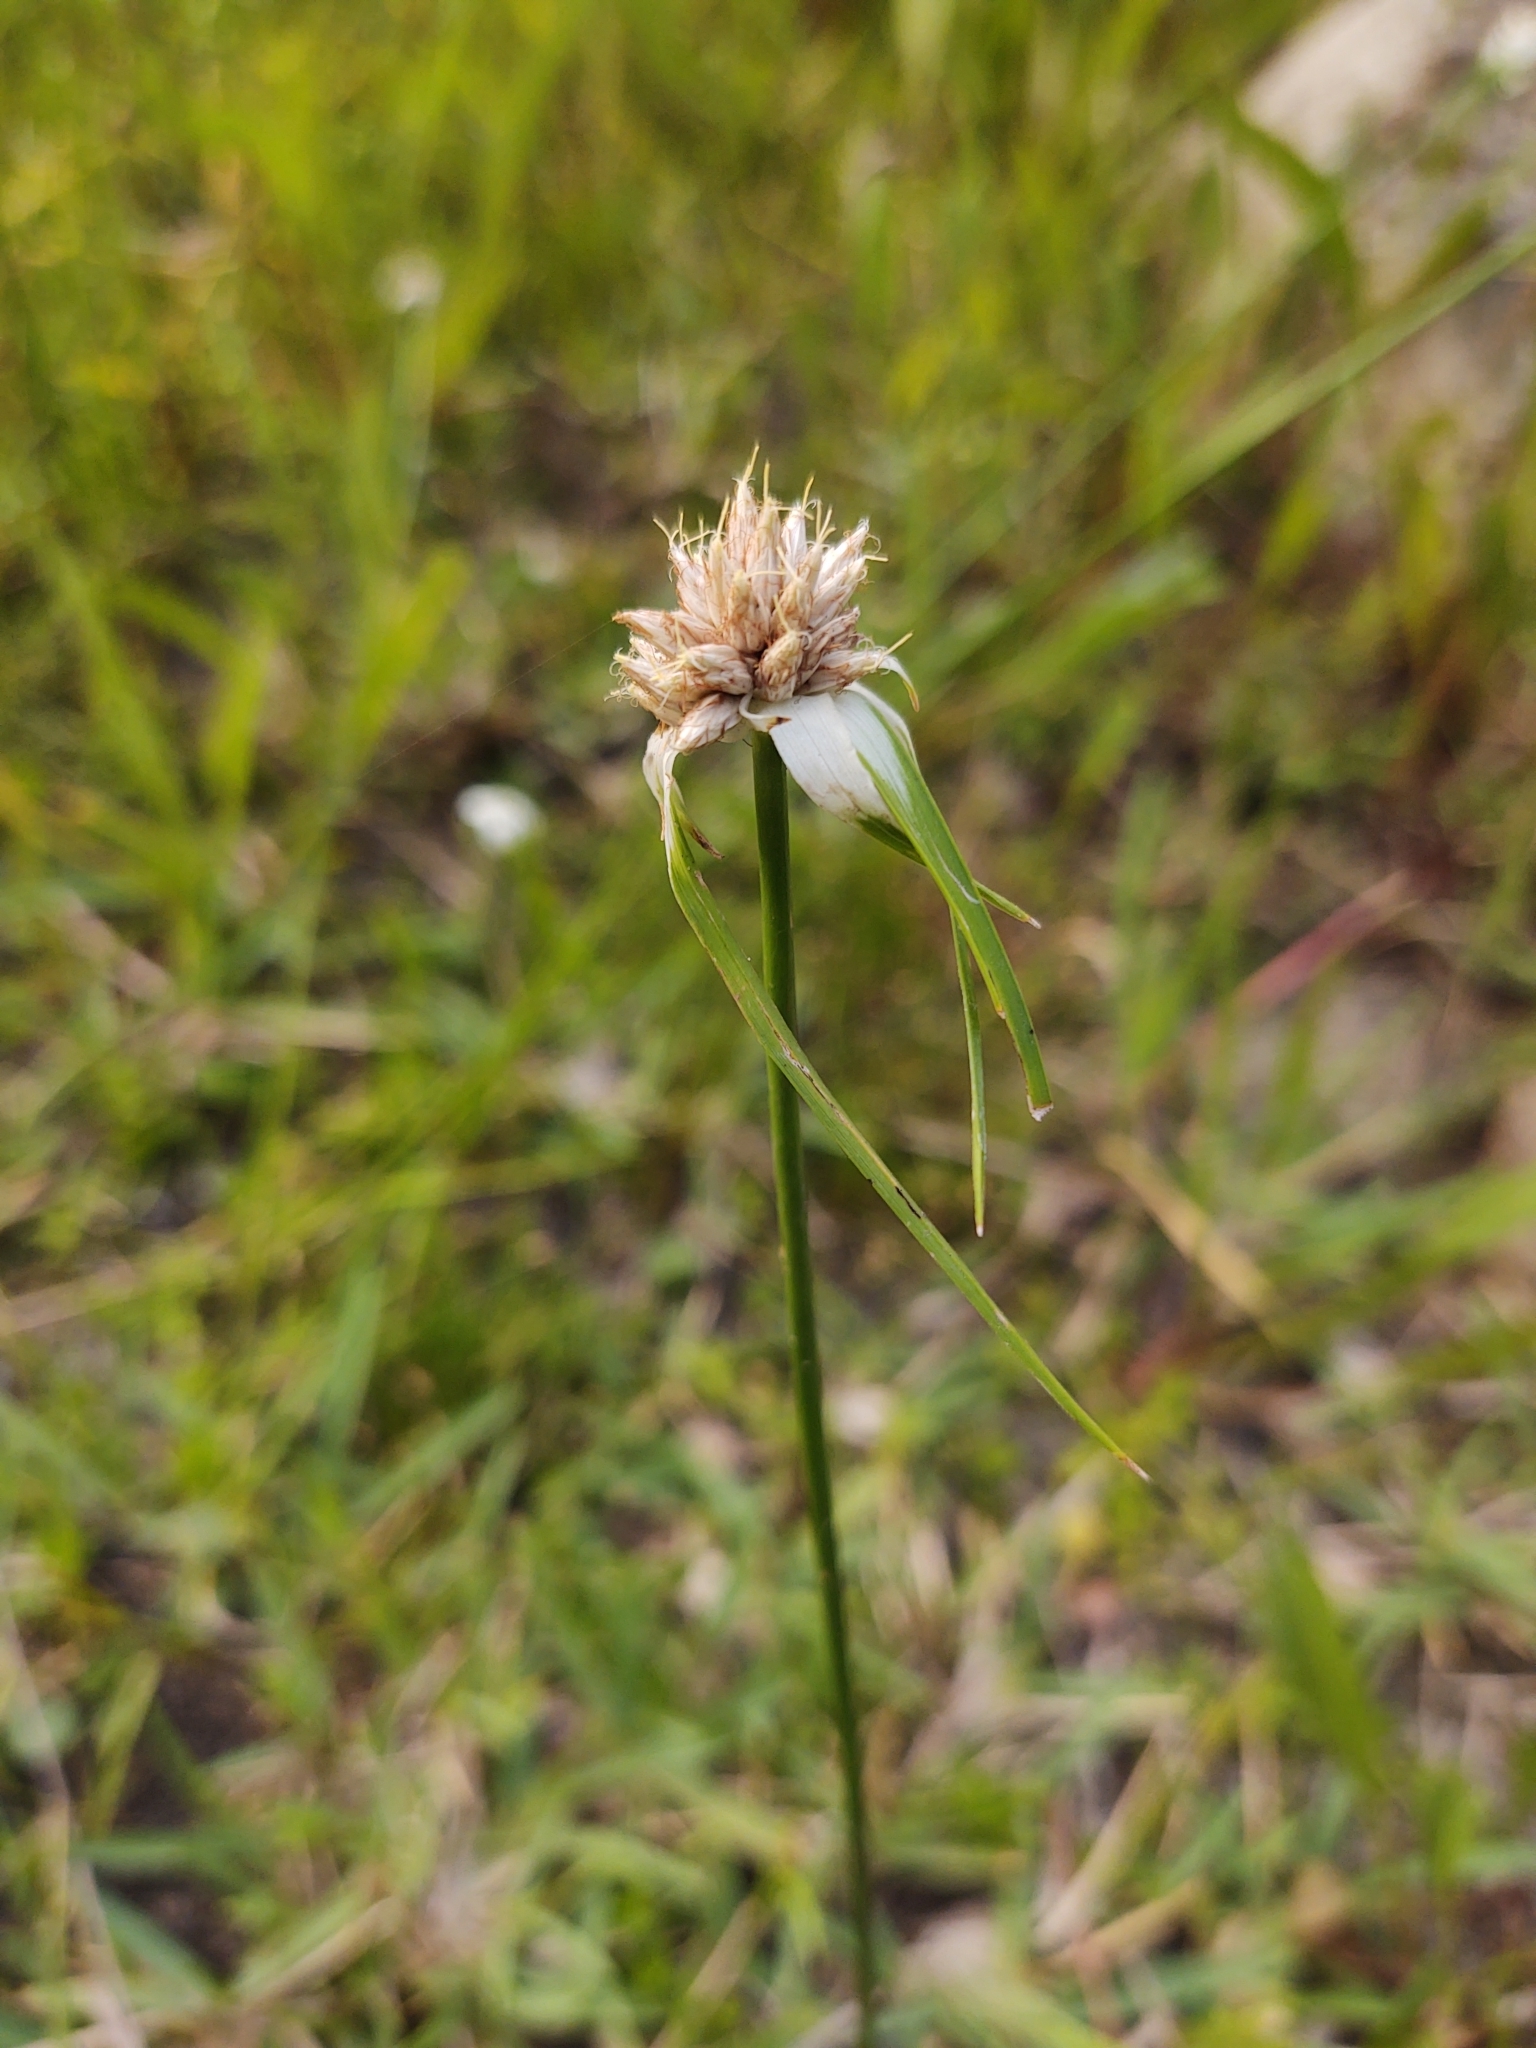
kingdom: Plantae
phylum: Tracheophyta
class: Liliopsida
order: Poales
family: Cyperaceae
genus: Rhynchospora
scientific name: Rhynchospora colorata
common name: Star sedge
